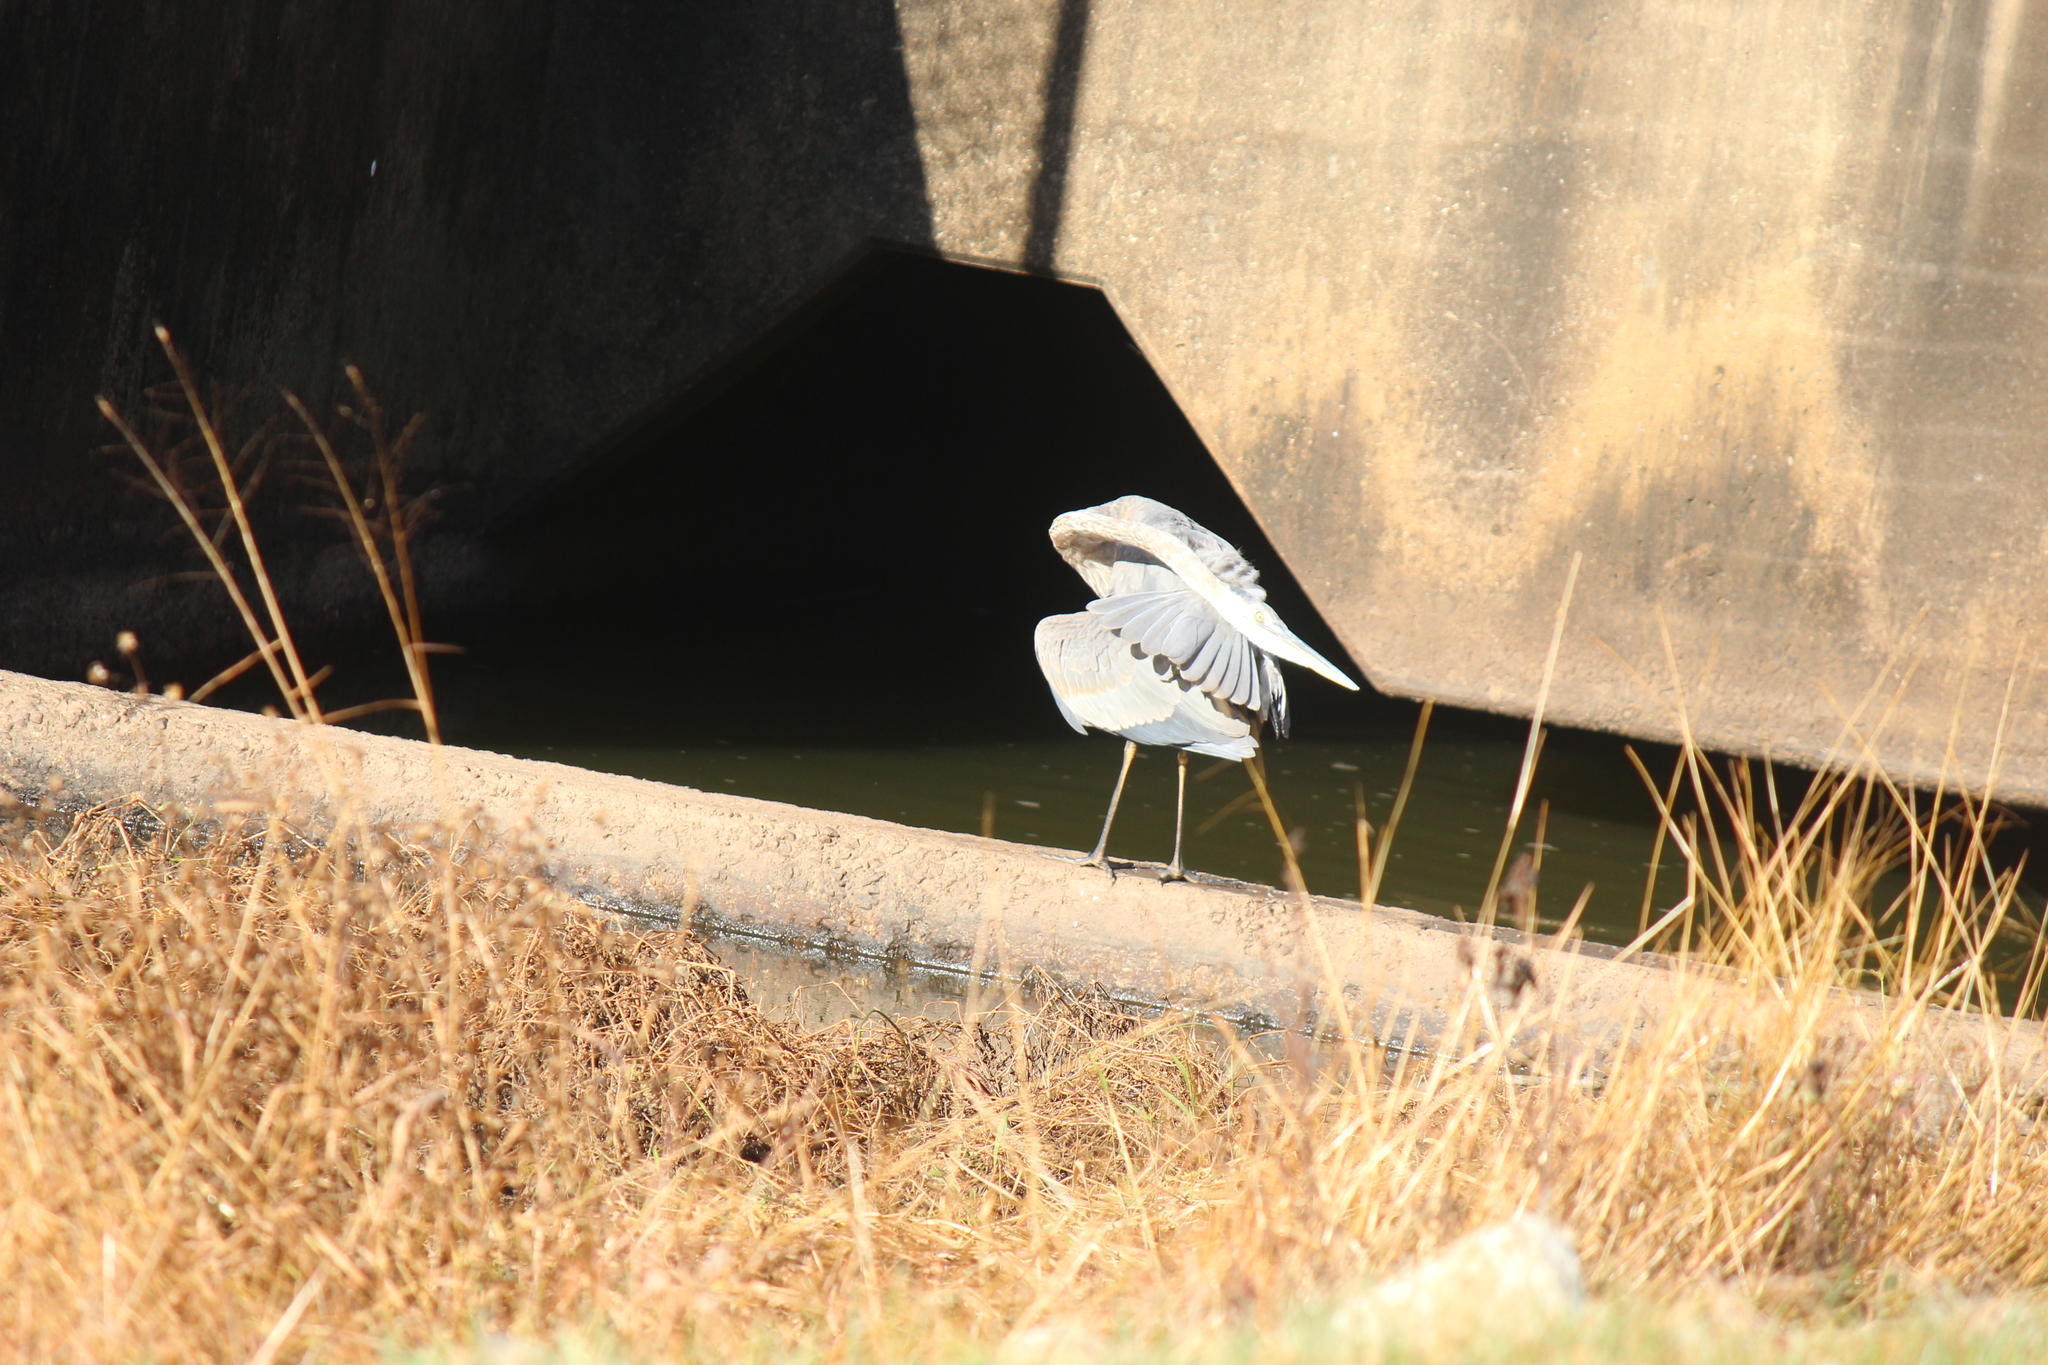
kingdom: Animalia
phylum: Chordata
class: Aves
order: Pelecaniformes
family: Ardeidae
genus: Ardea
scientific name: Ardea herodias
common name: Great blue heron
